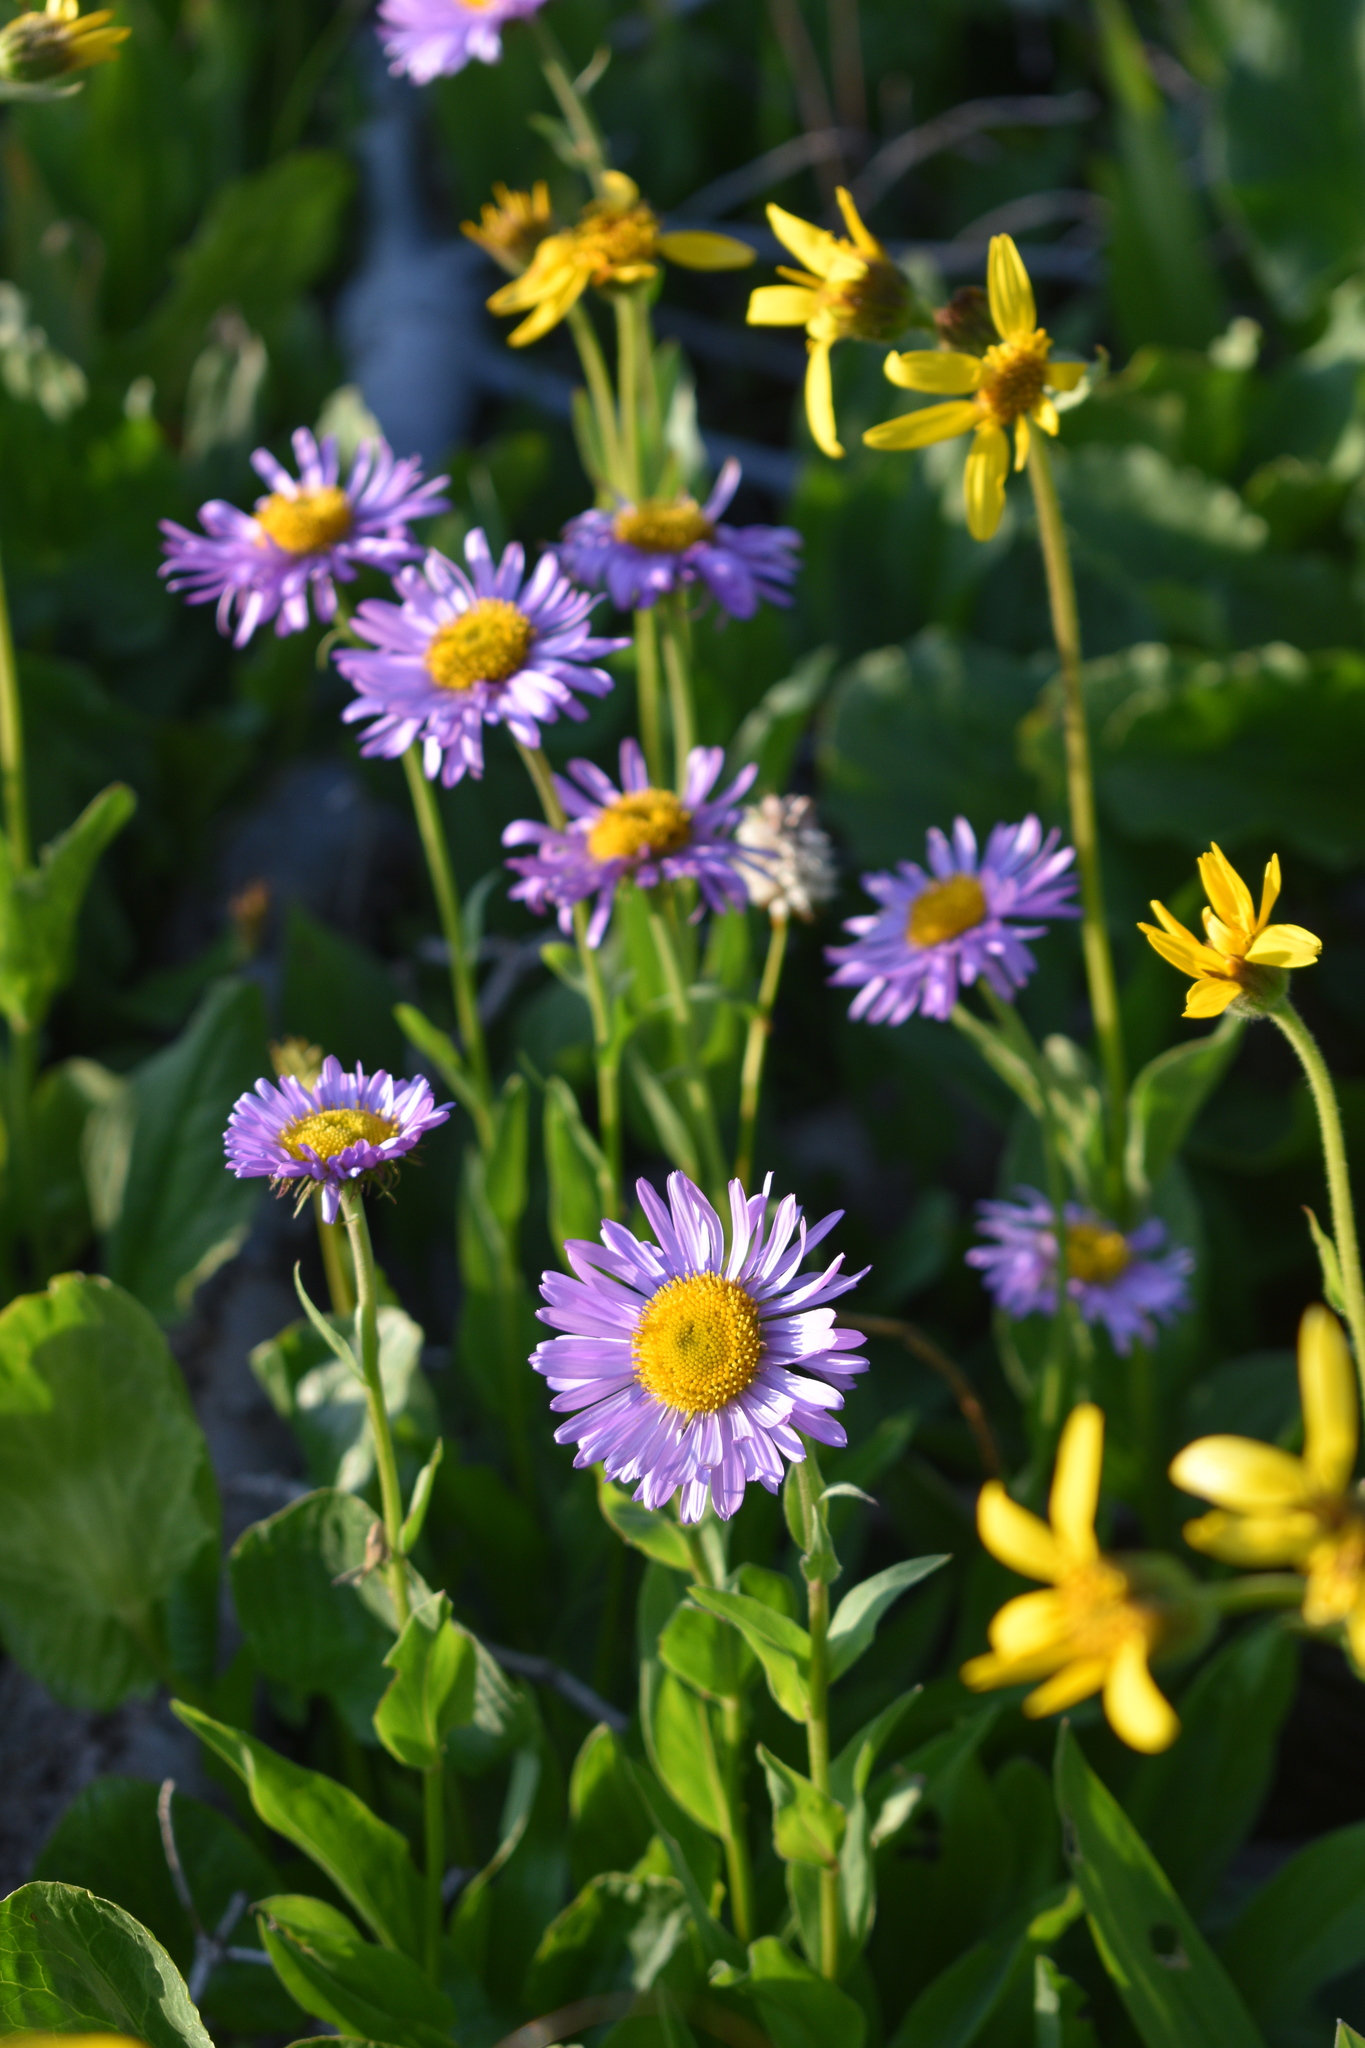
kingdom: Plantae
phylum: Tracheophyta
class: Magnoliopsida
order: Asterales
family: Asteraceae
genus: Erigeron
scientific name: Erigeron glacialis
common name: Subalpine fleabane
